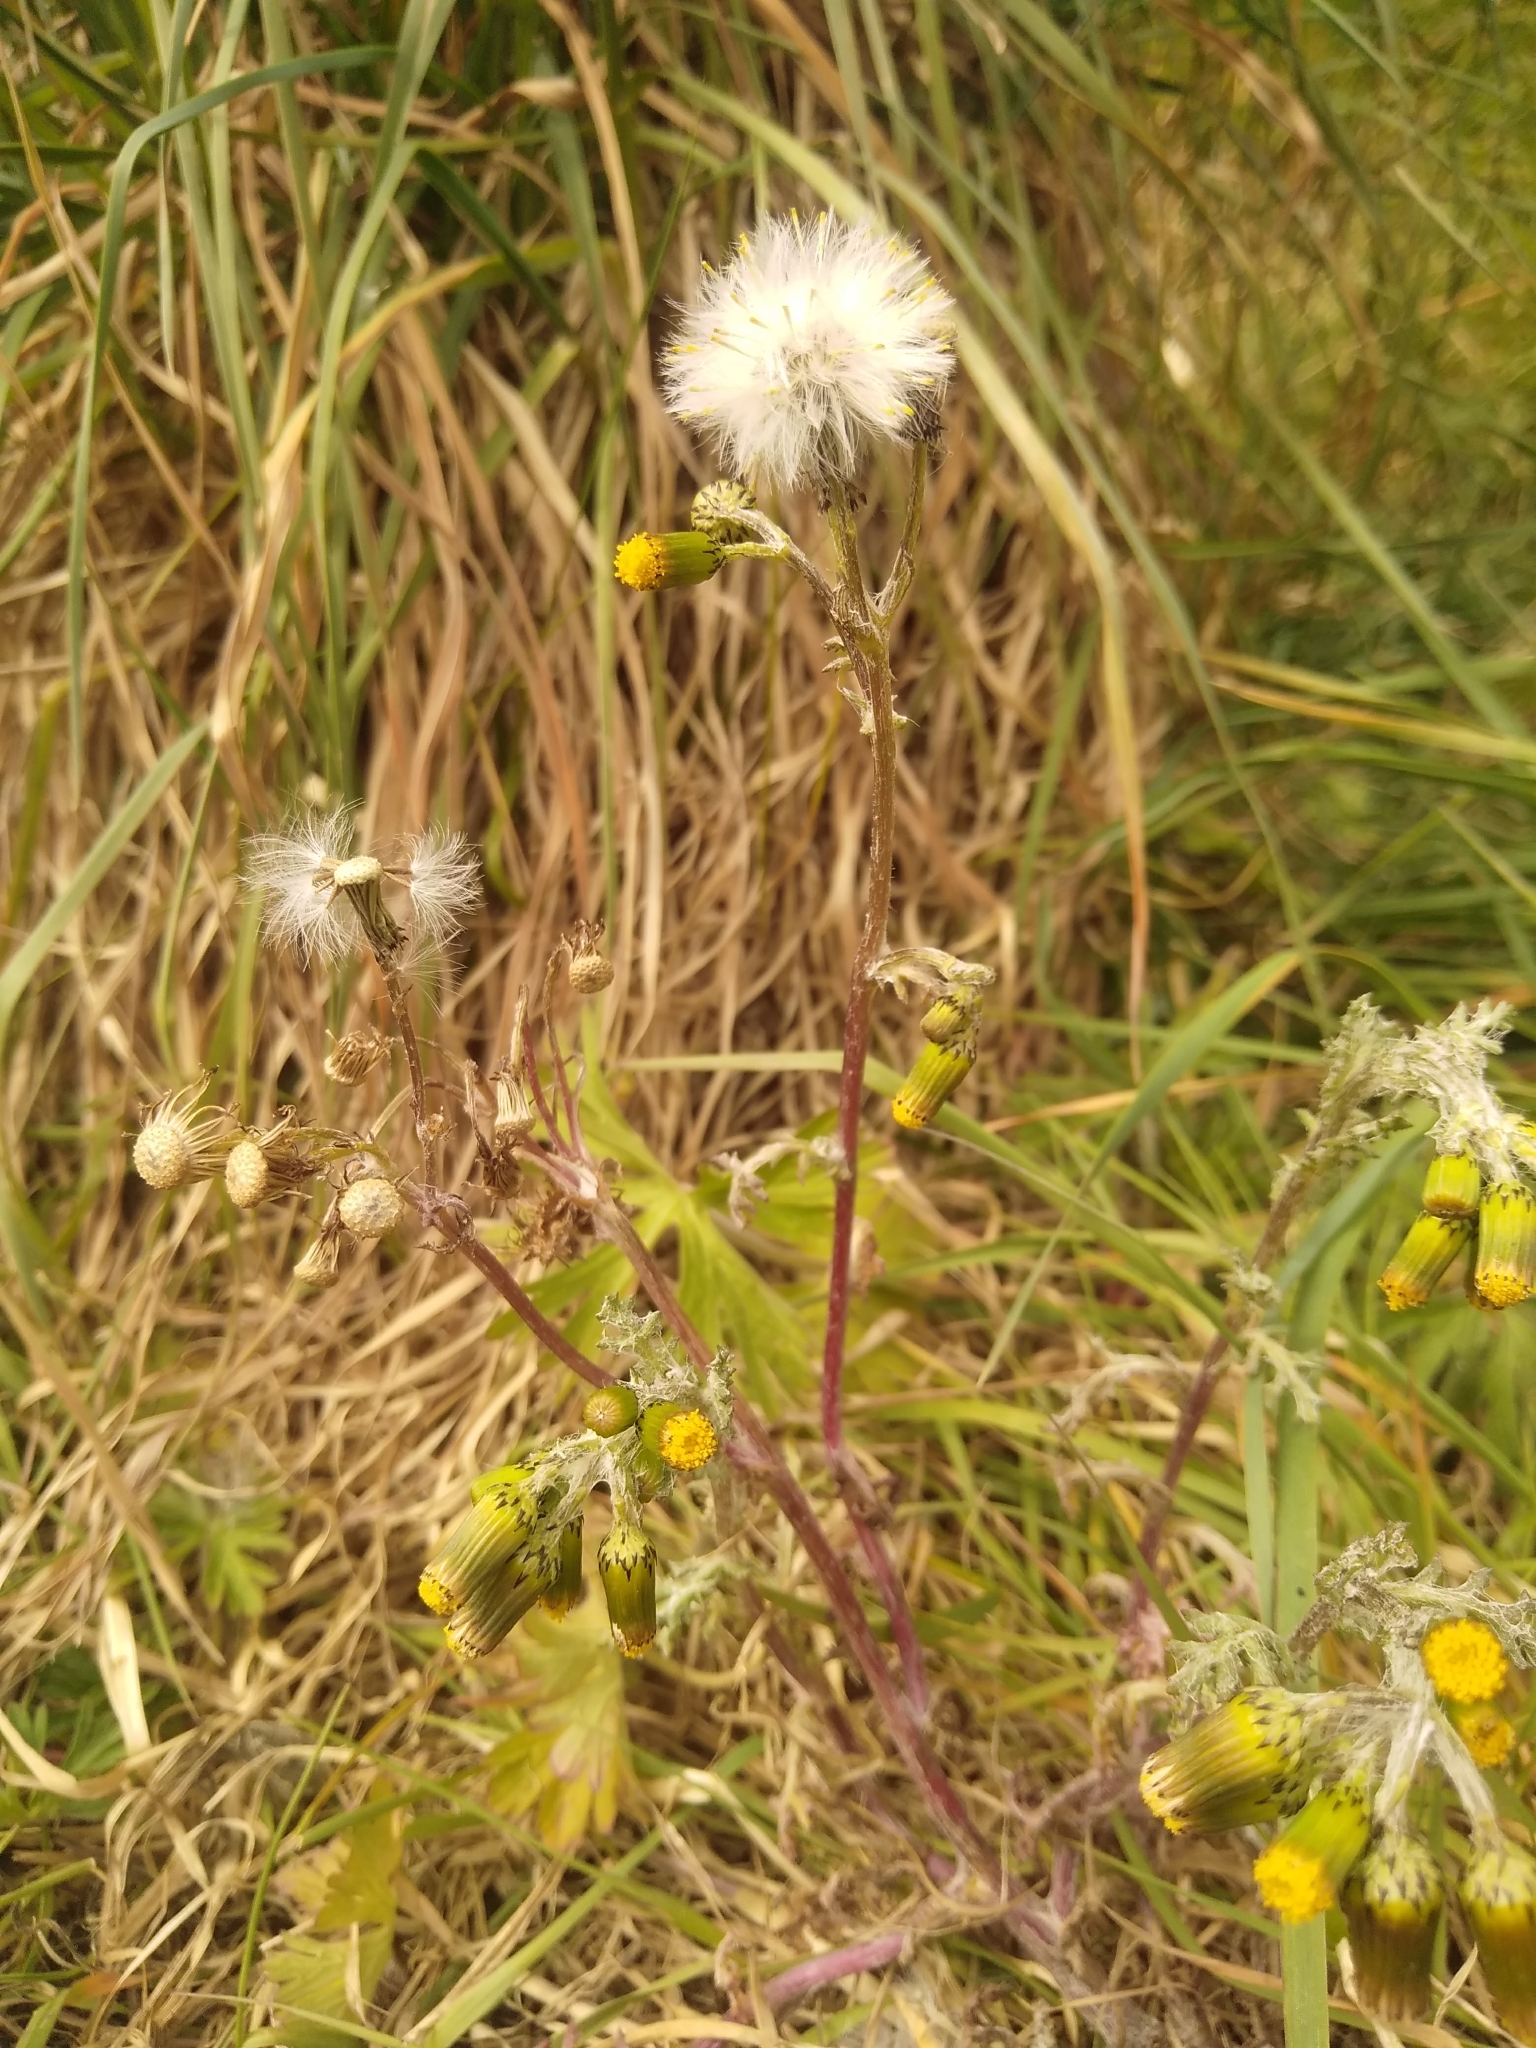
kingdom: Plantae
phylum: Tracheophyta
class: Magnoliopsida
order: Asterales
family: Asteraceae
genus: Senecio
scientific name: Senecio vulgaris
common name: Old-man-in-the-spring
